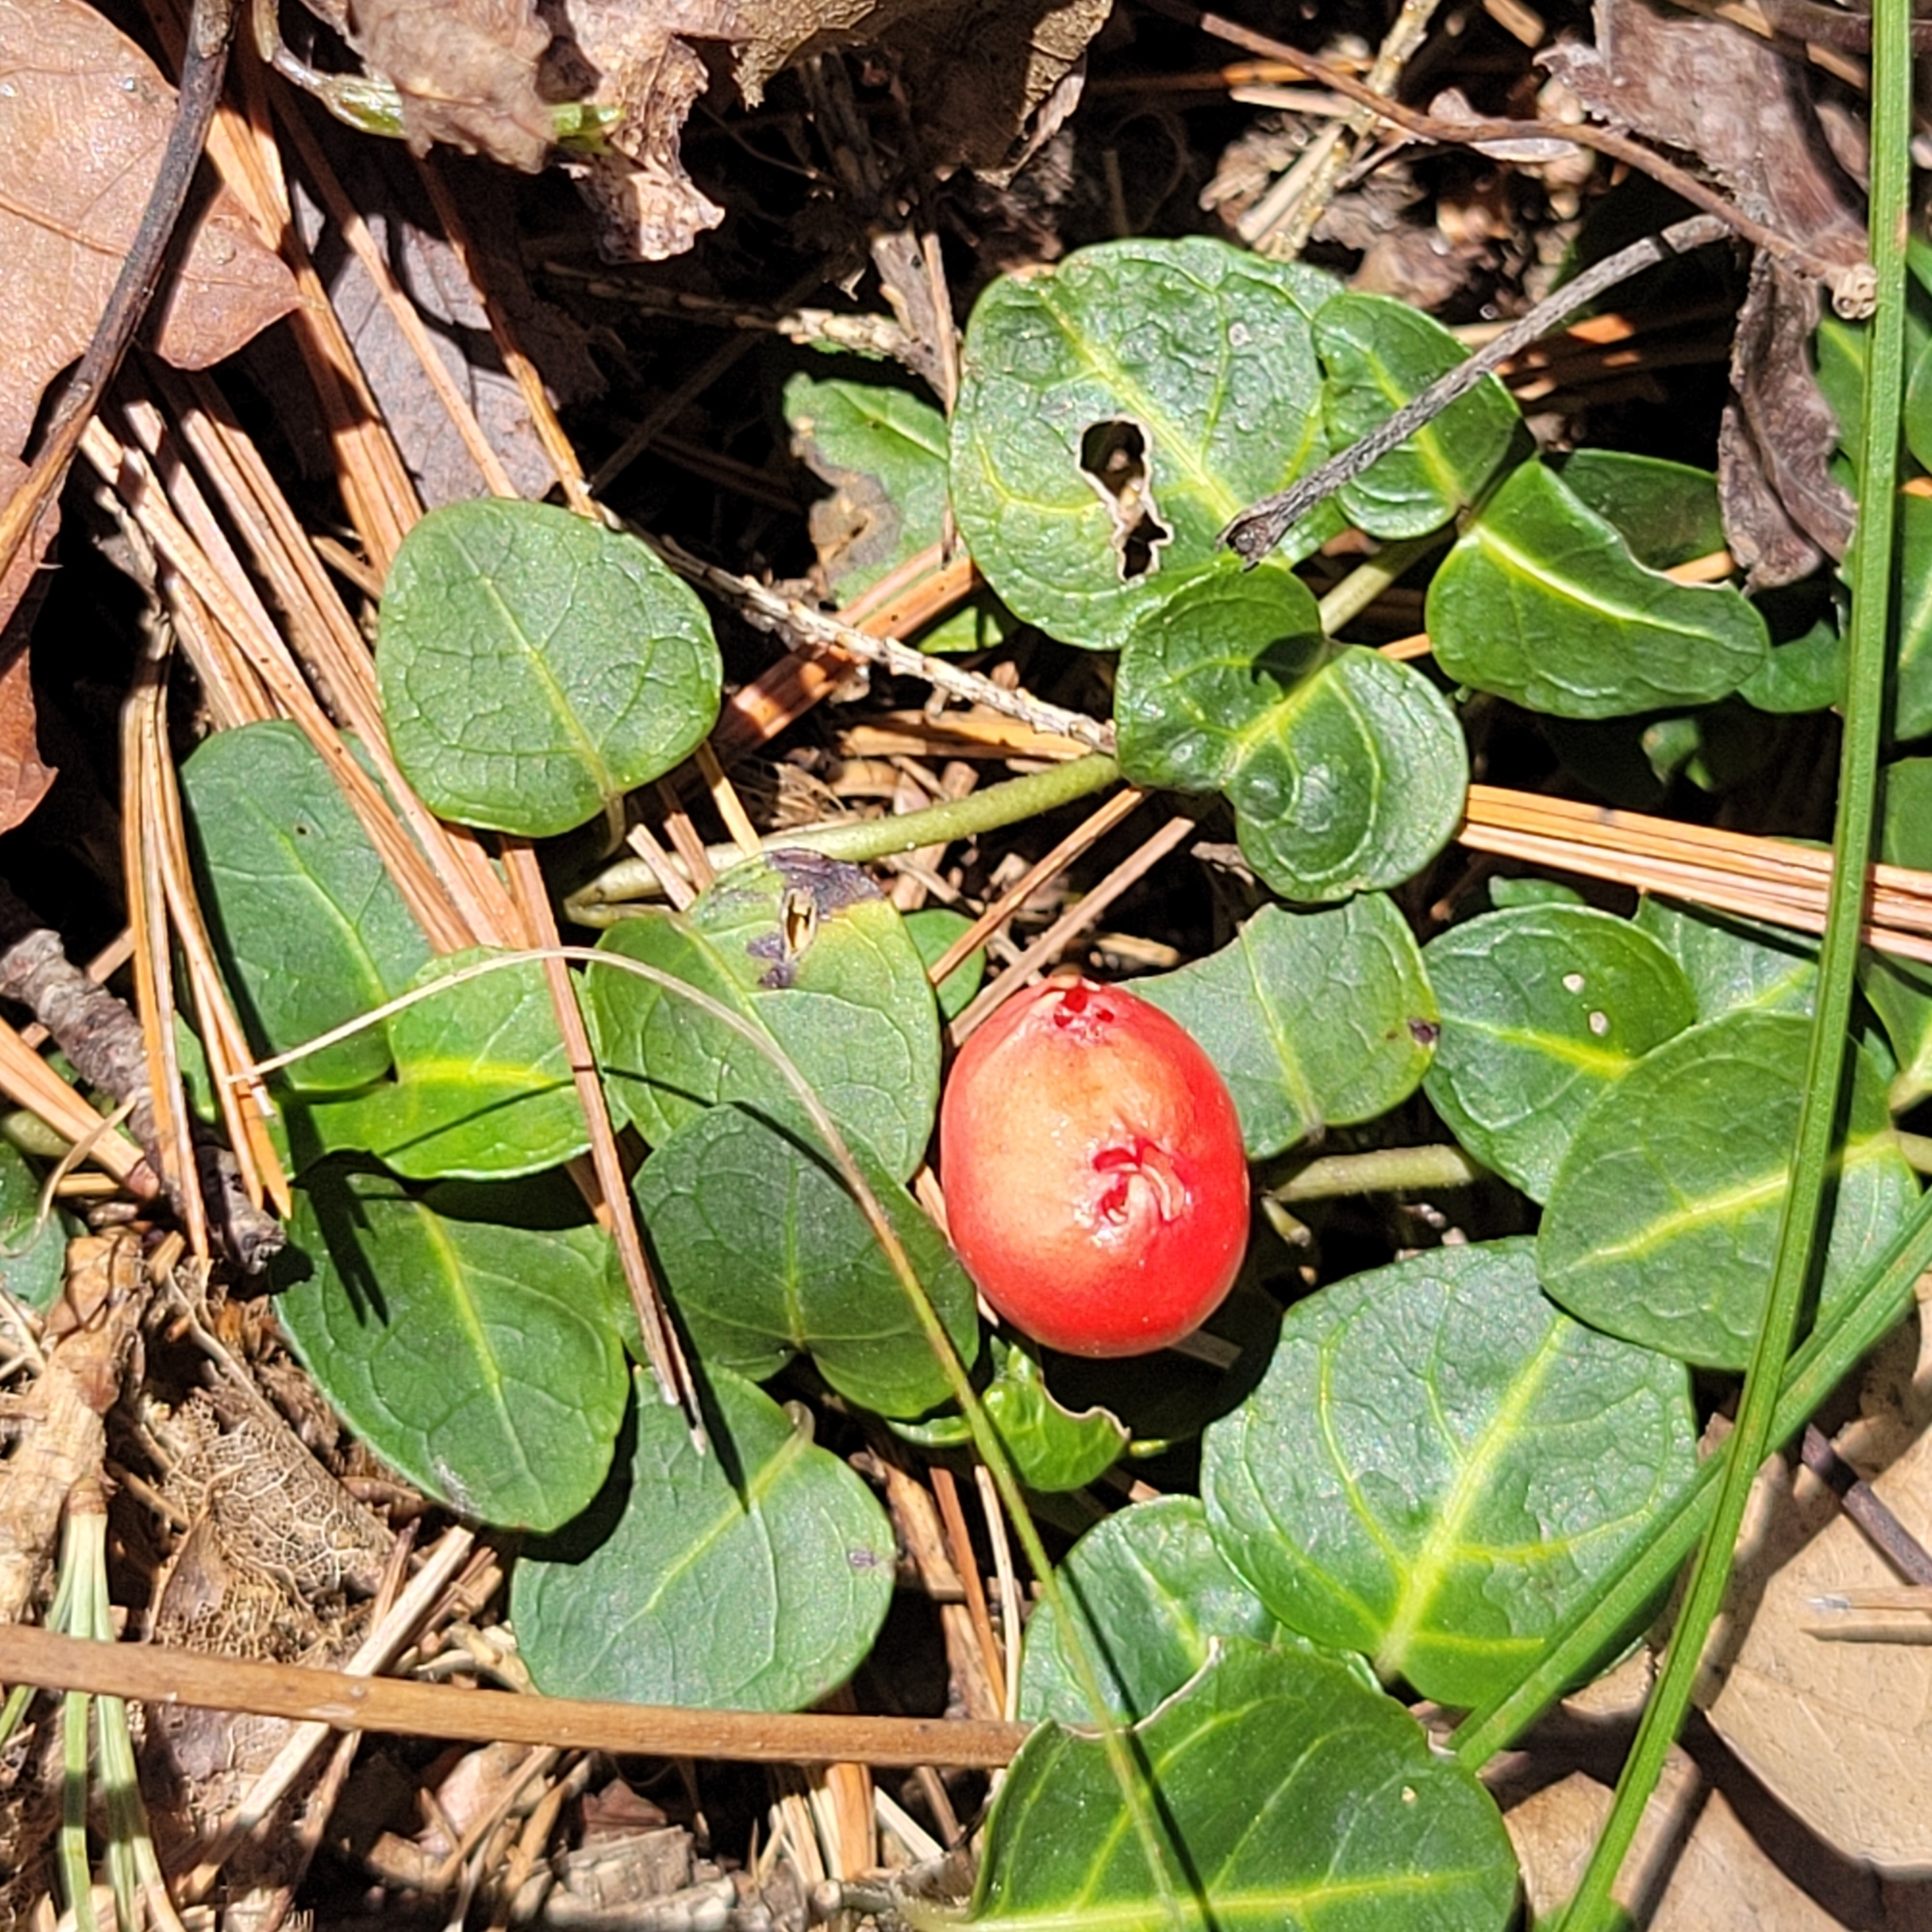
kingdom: Plantae
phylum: Tracheophyta
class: Magnoliopsida
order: Gentianales
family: Rubiaceae
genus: Mitchella
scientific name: Mitchella repens
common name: Partridge-berry
